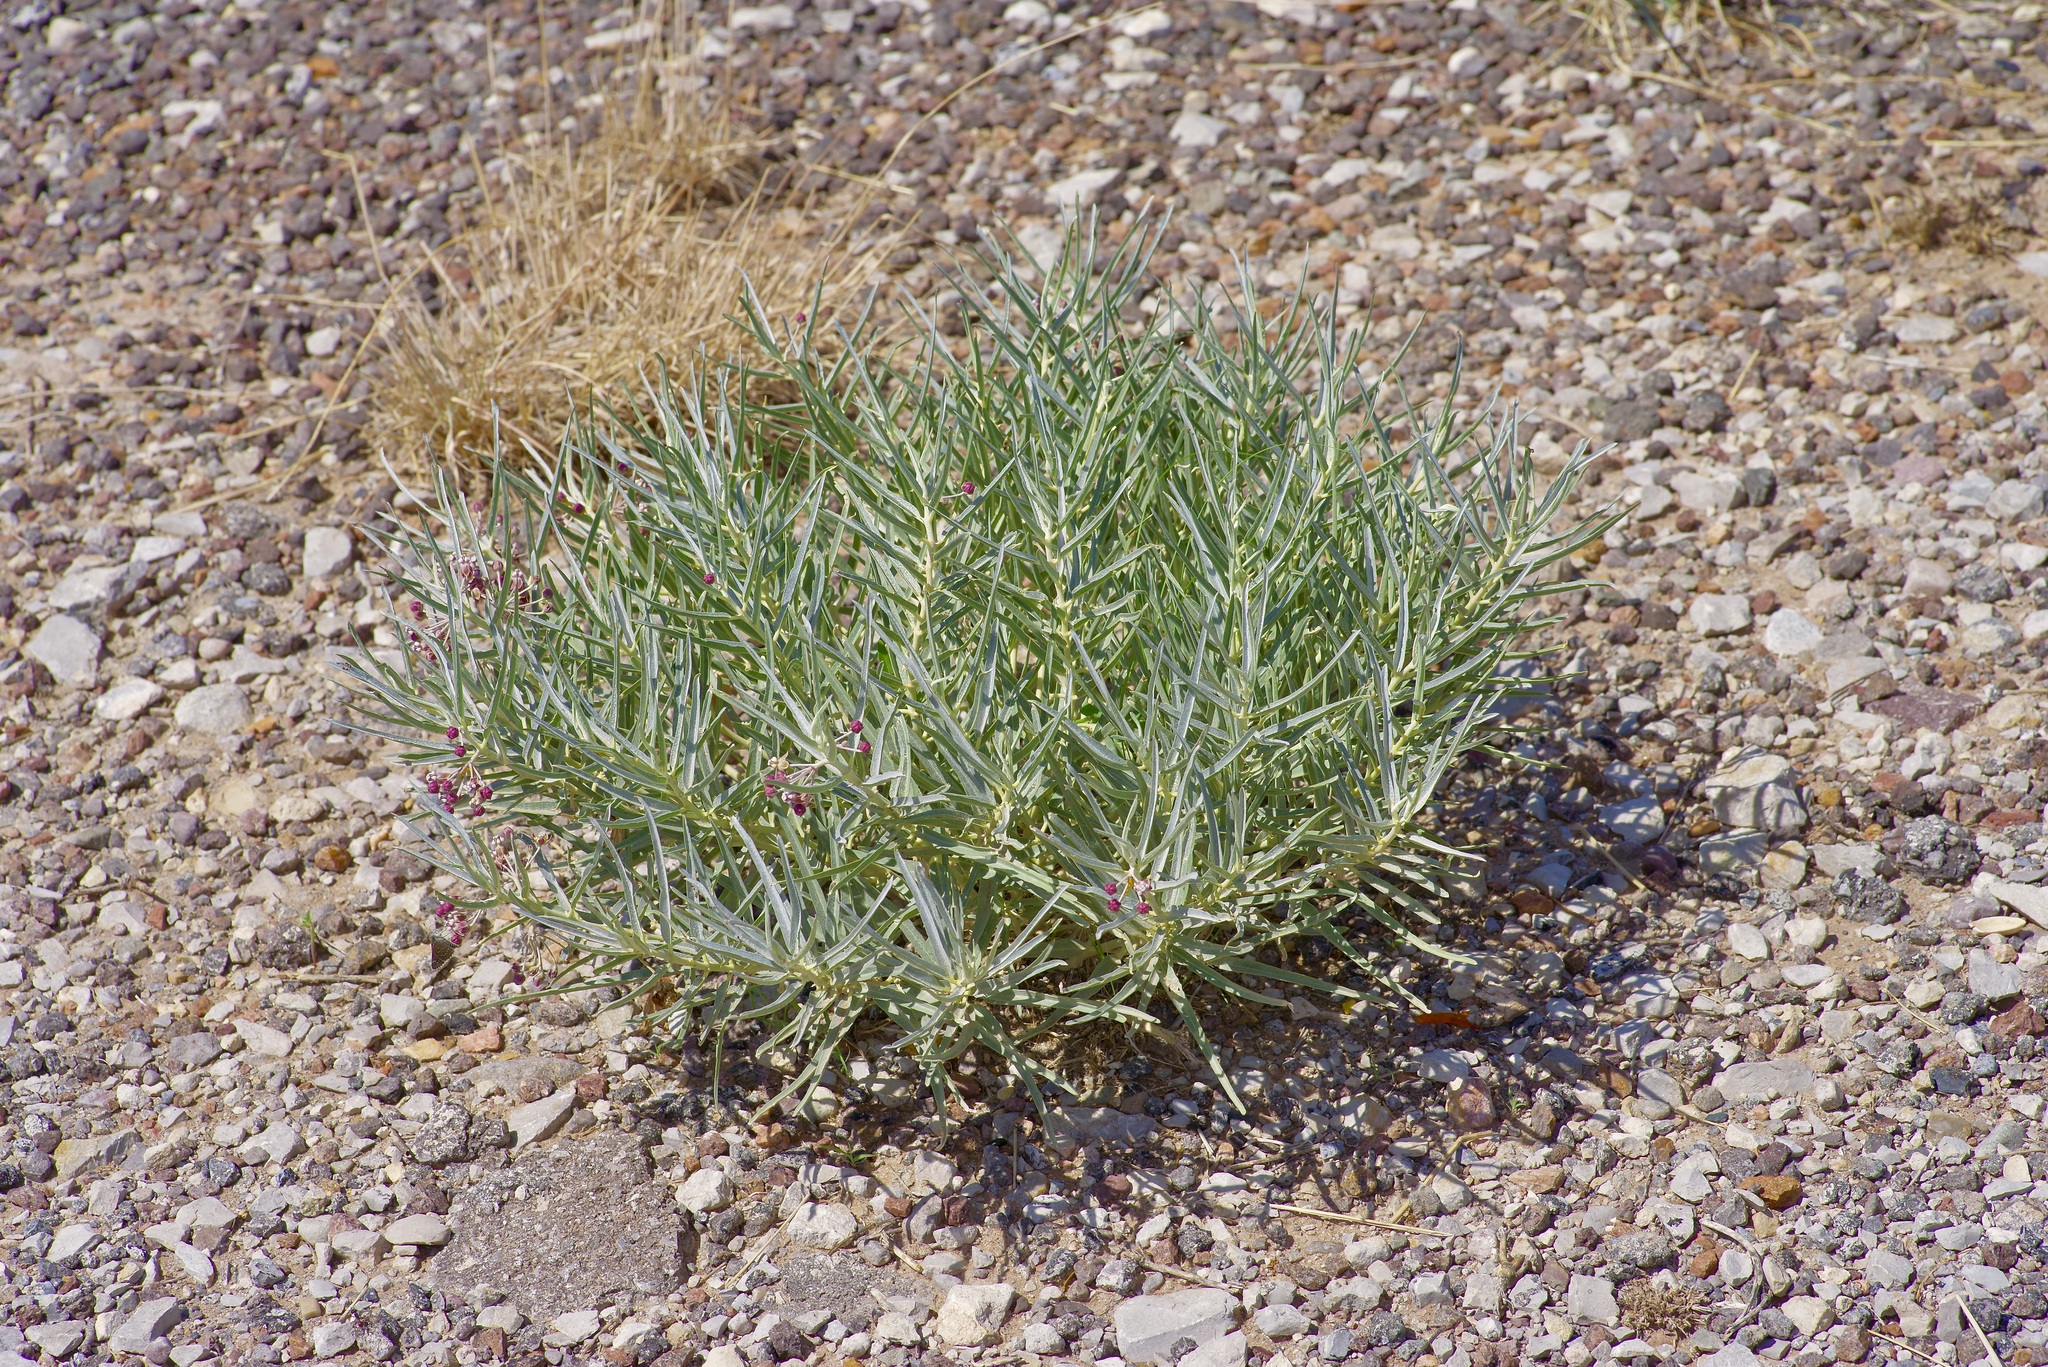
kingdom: Plantae
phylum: Tracheophyta
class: Magnoliopsida
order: Gentianales
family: Apocynaceae
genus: Asclepias
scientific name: Asclepias brachystephana
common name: Shortcrown milkweed
